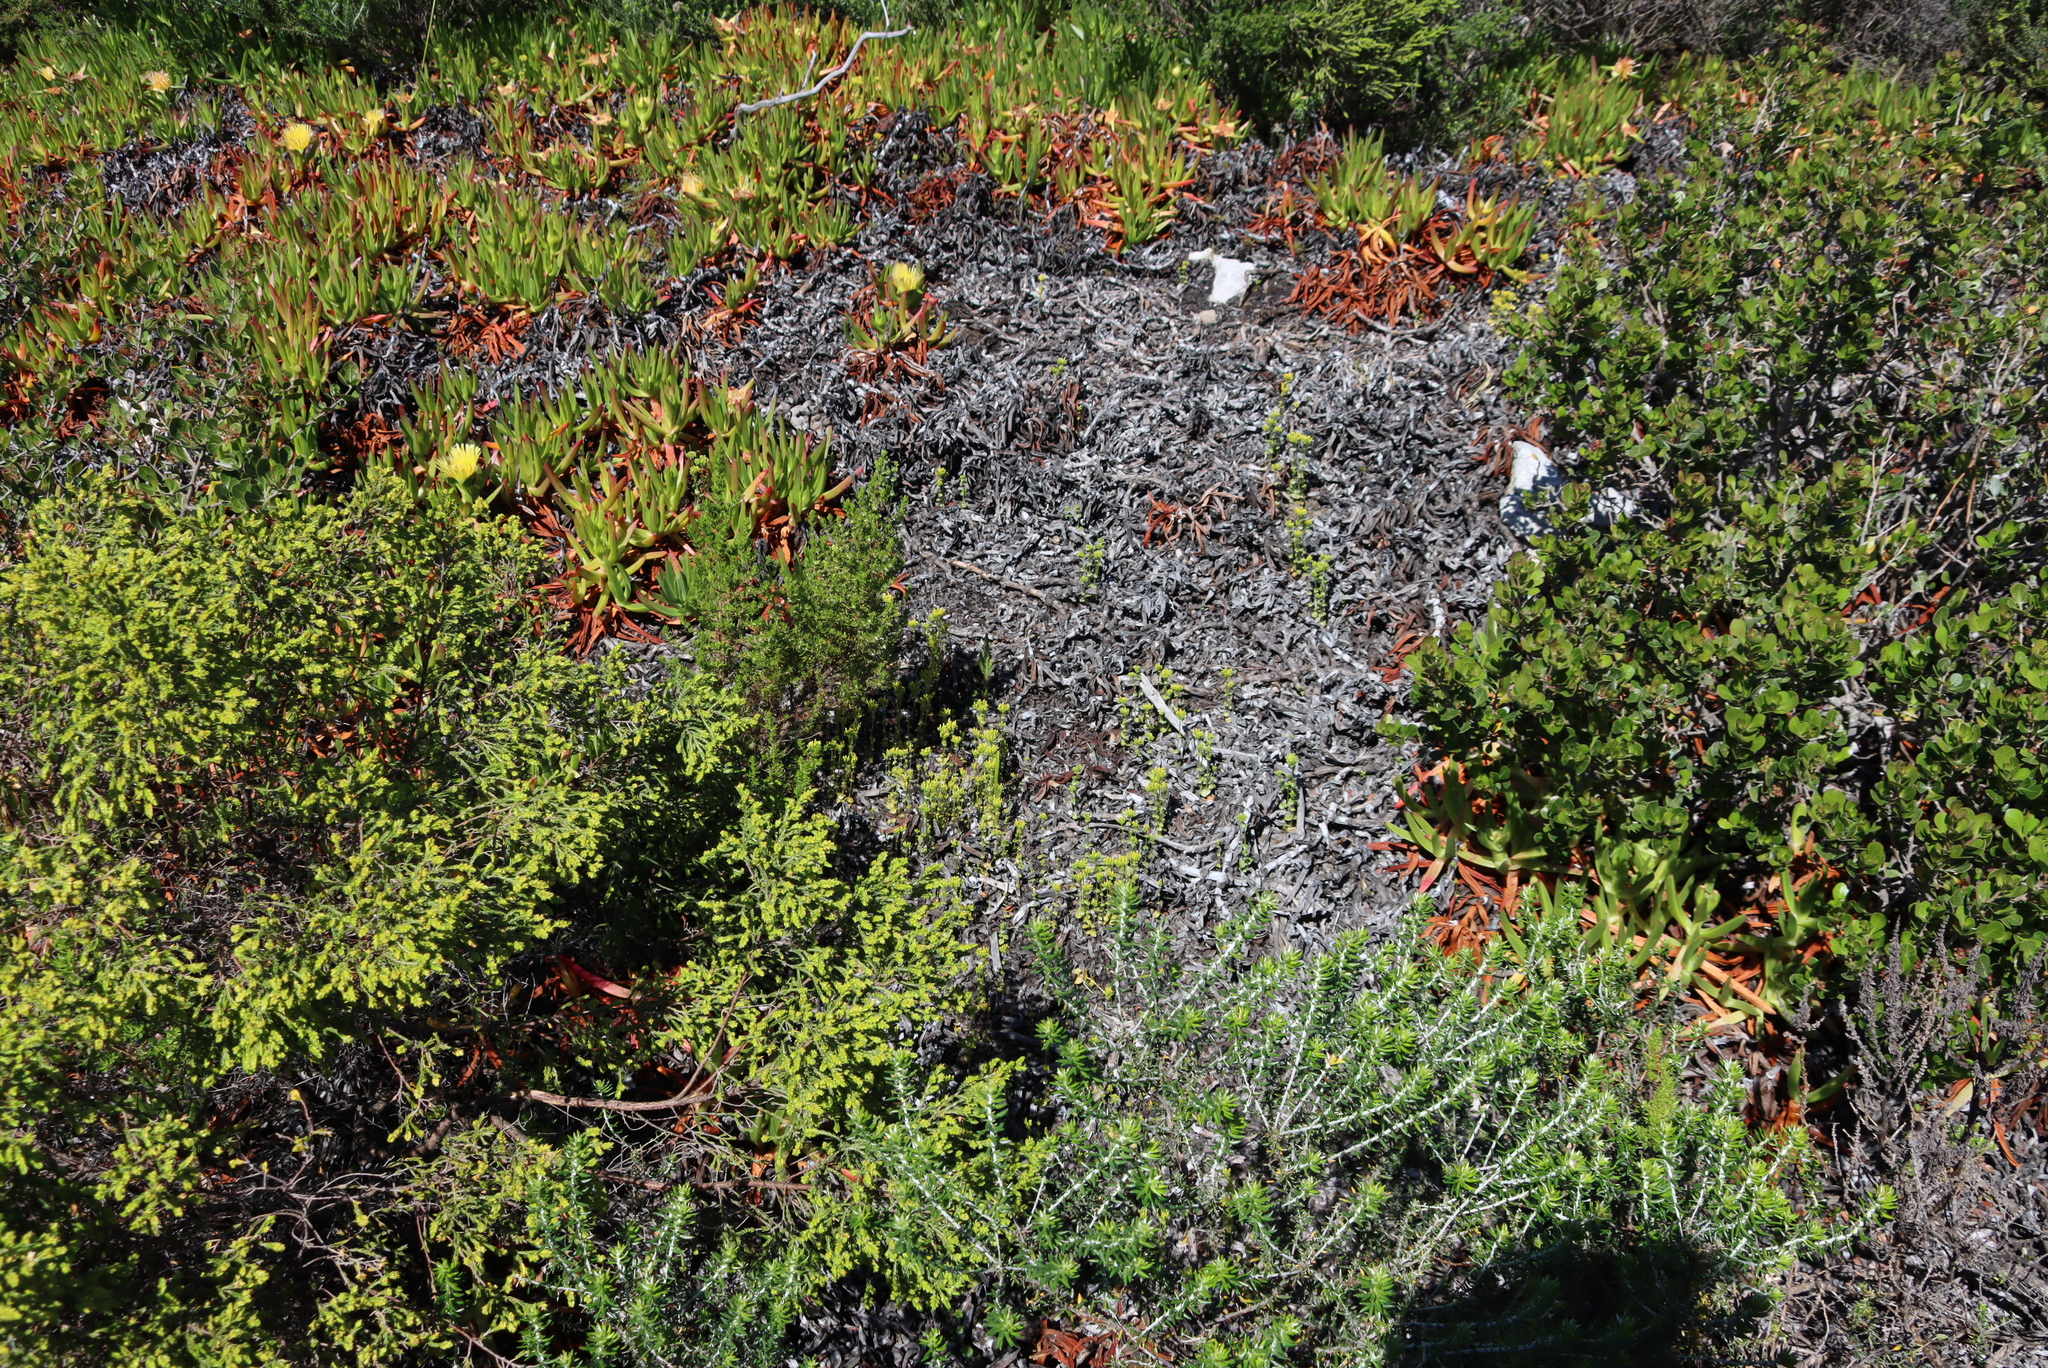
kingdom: Plantae
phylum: Tracheophyta
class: Magnoliopsida
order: Caryophyllales
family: Aizoaceae
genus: Carpobrotus
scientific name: Carpobrotus edulis
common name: Hottentot-fig
